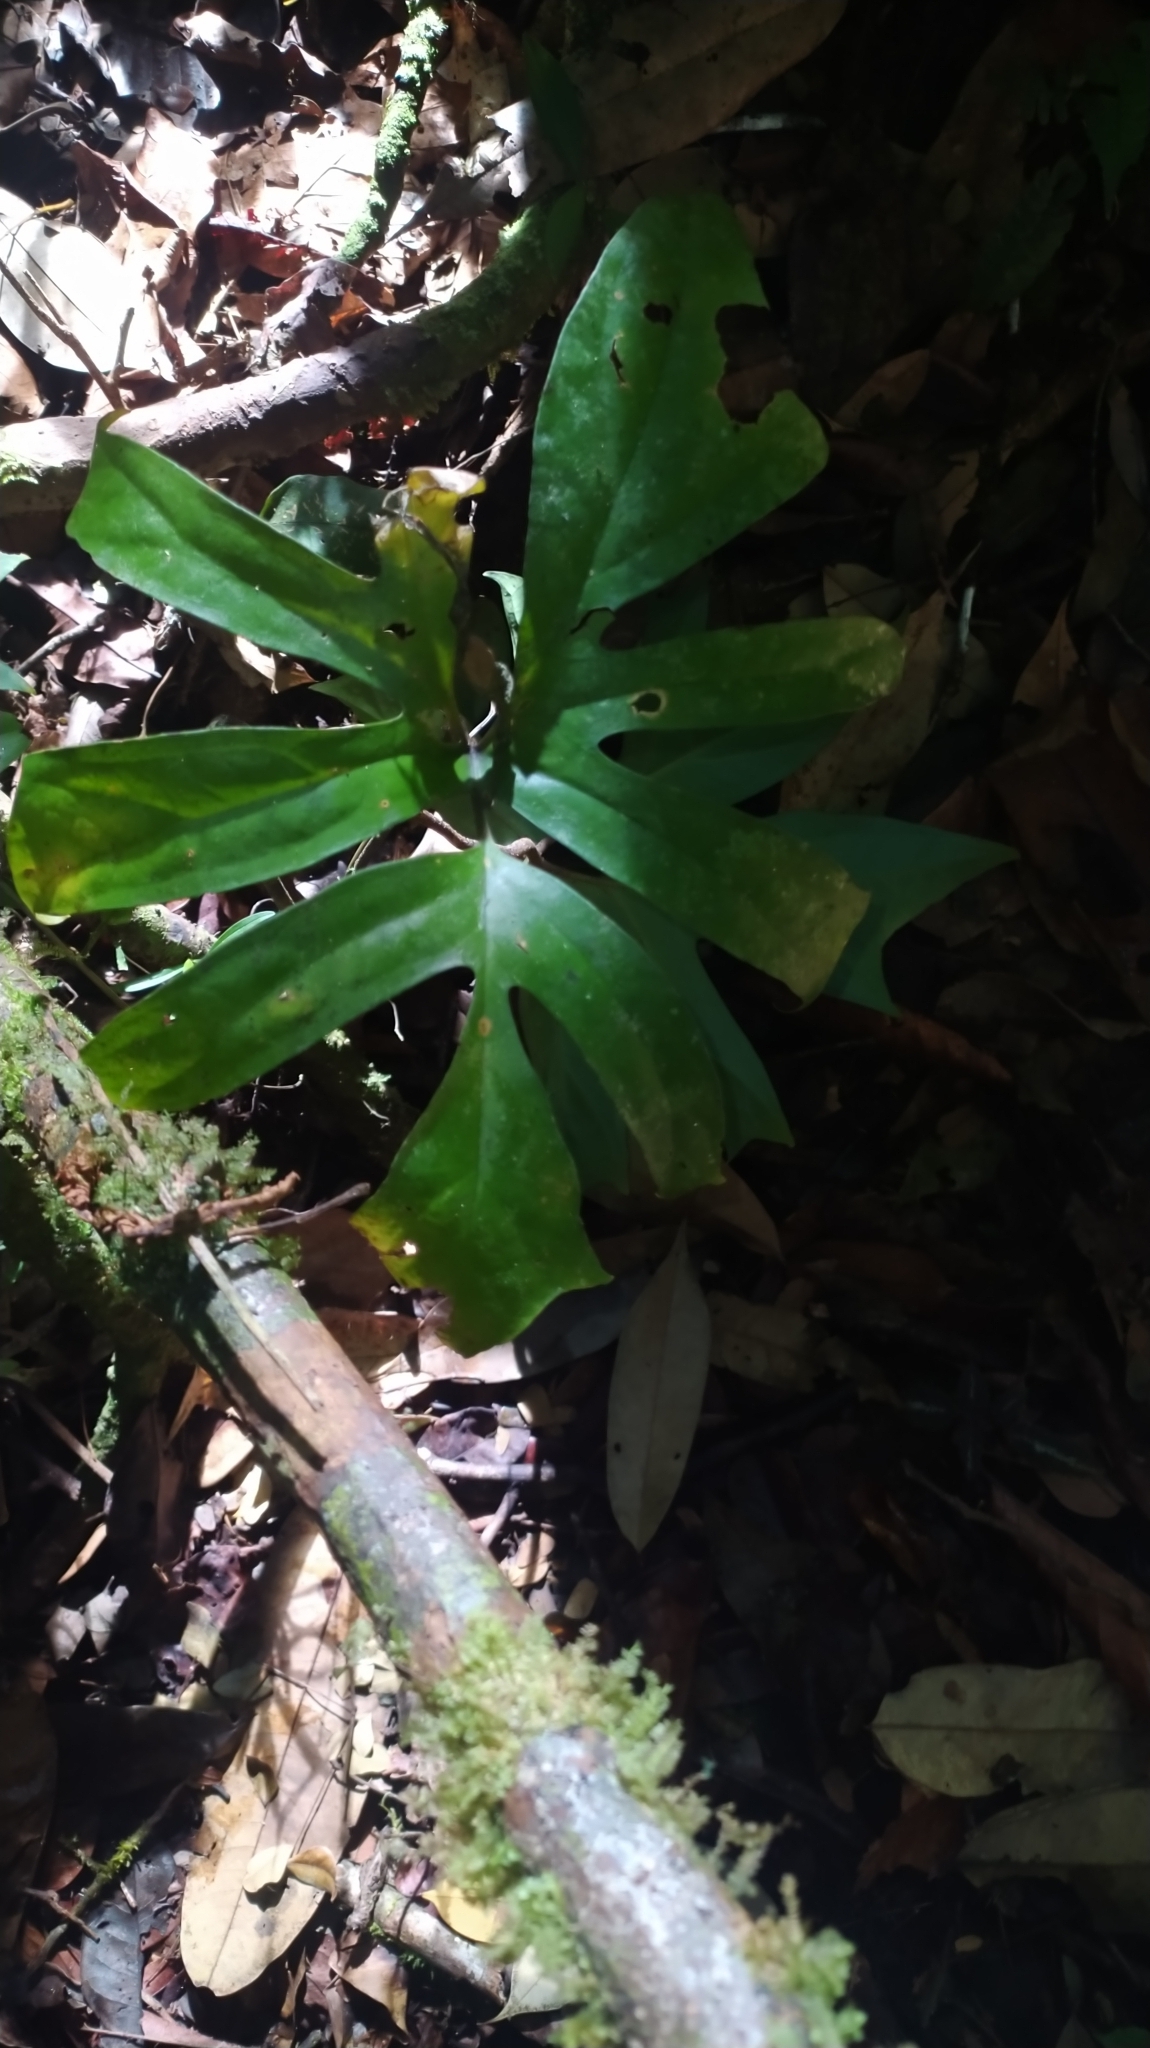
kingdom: Plantae
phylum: Tracheophyta
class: Liliopsida
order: Alismatales
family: Araceae
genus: Anaphyllopsis
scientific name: Anaphyllopsis americana
